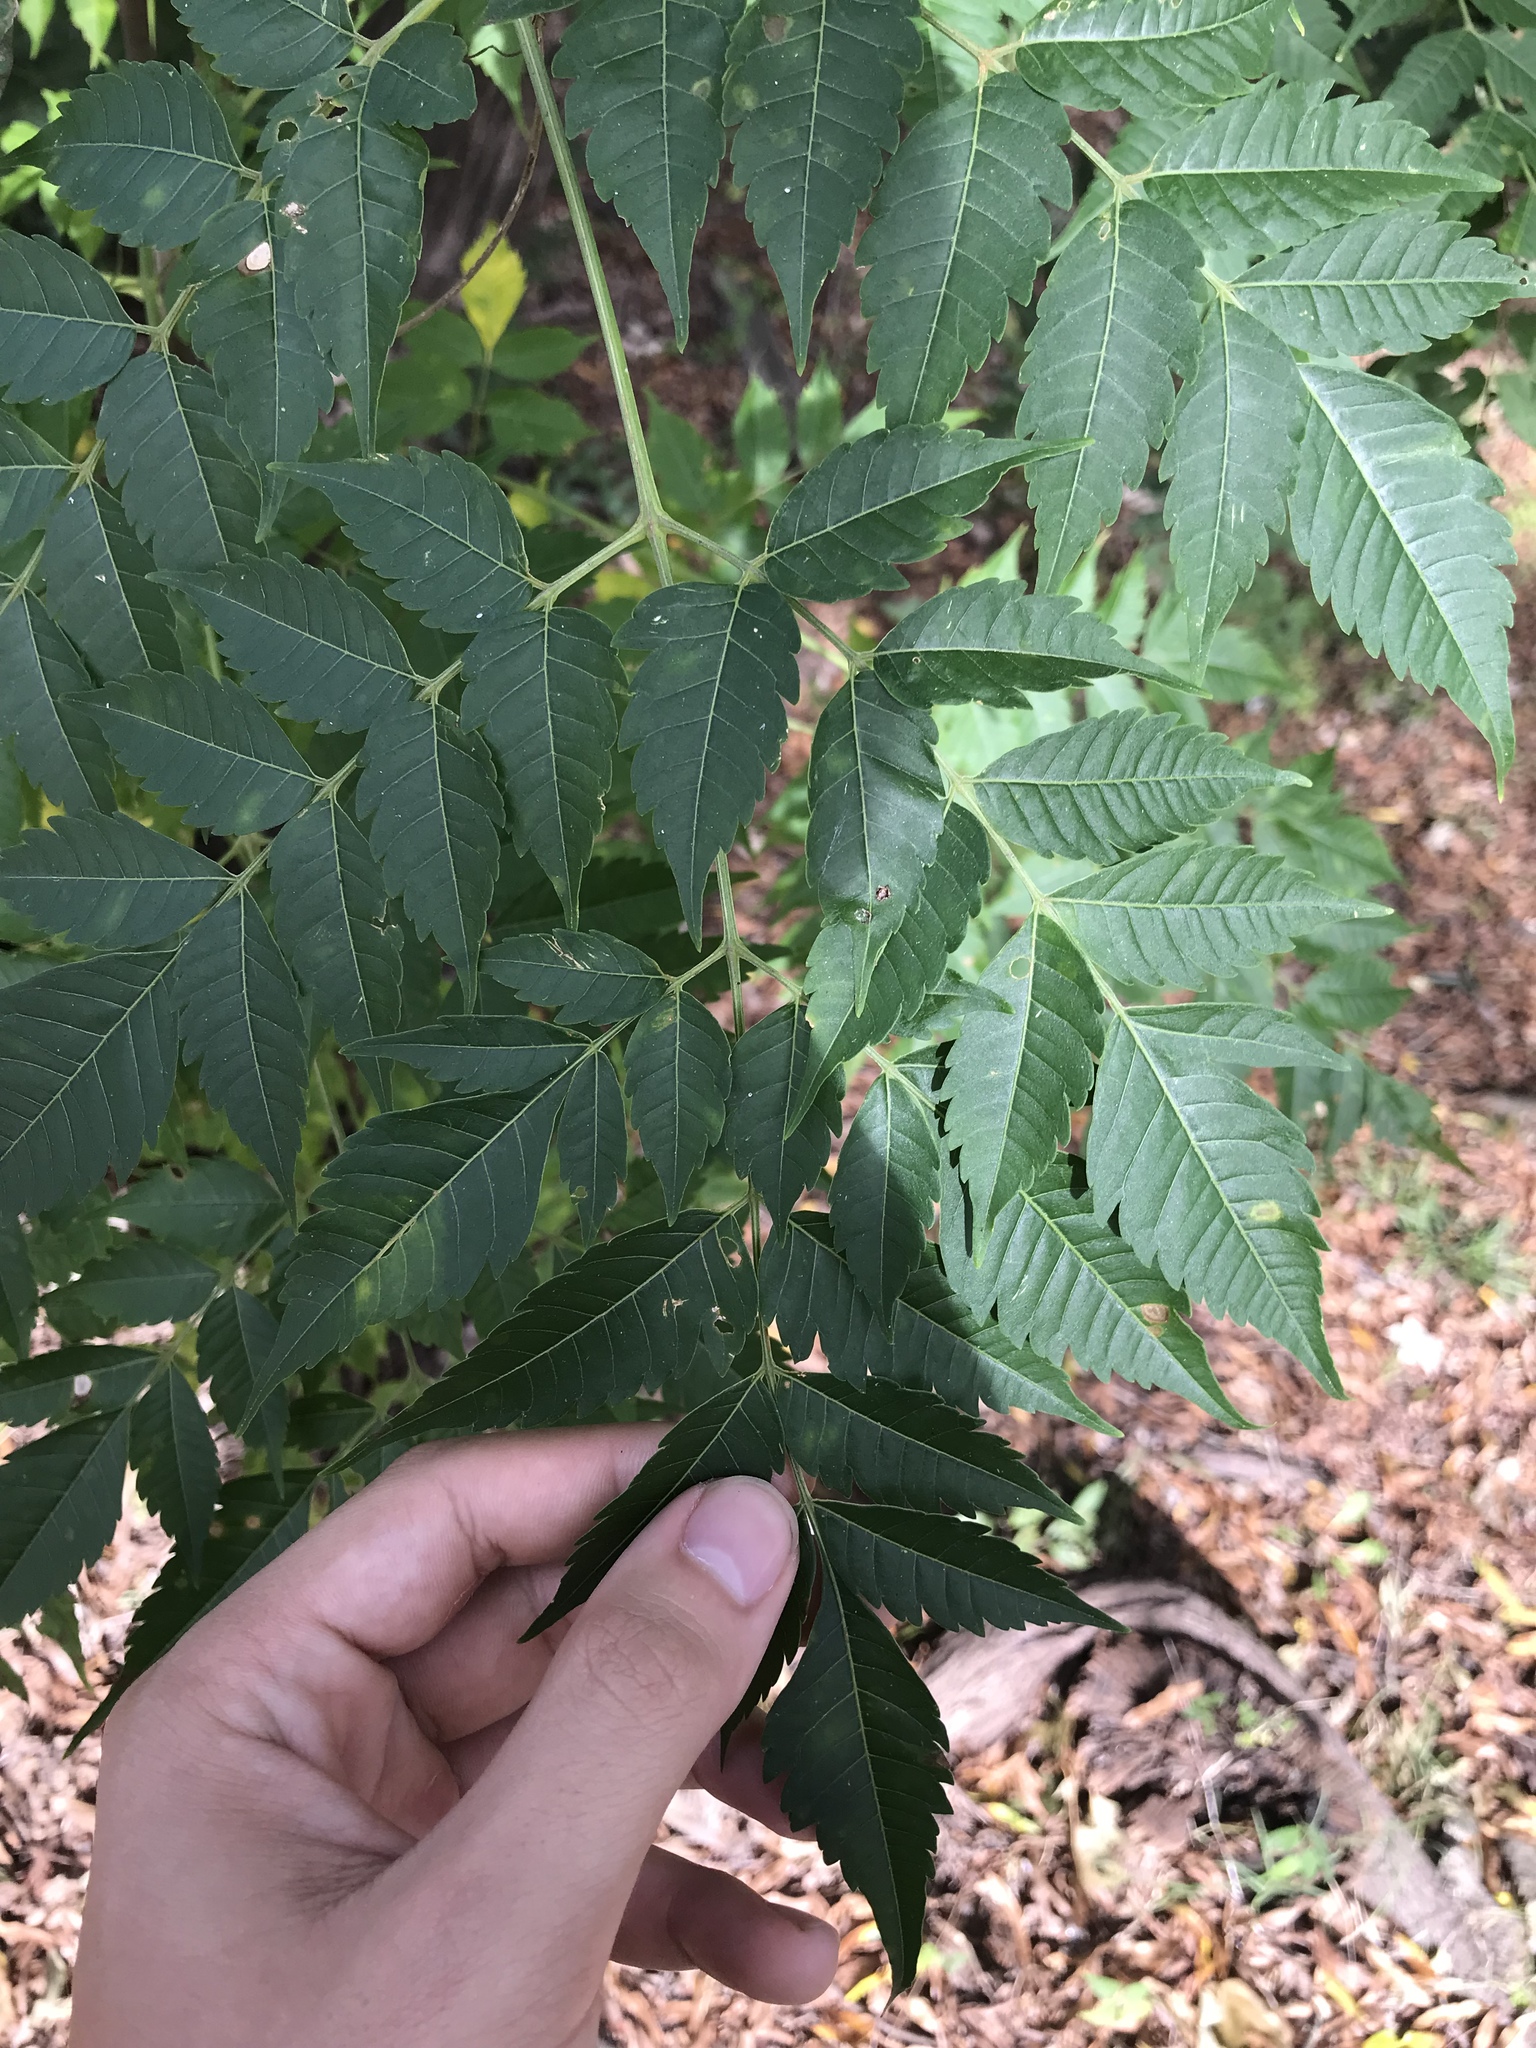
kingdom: Plantae
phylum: Tracheophyta
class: Magnoliopsida
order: Sapindales
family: Meliaceae
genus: Melia
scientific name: Melia azedarach
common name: Chinaberrytree
